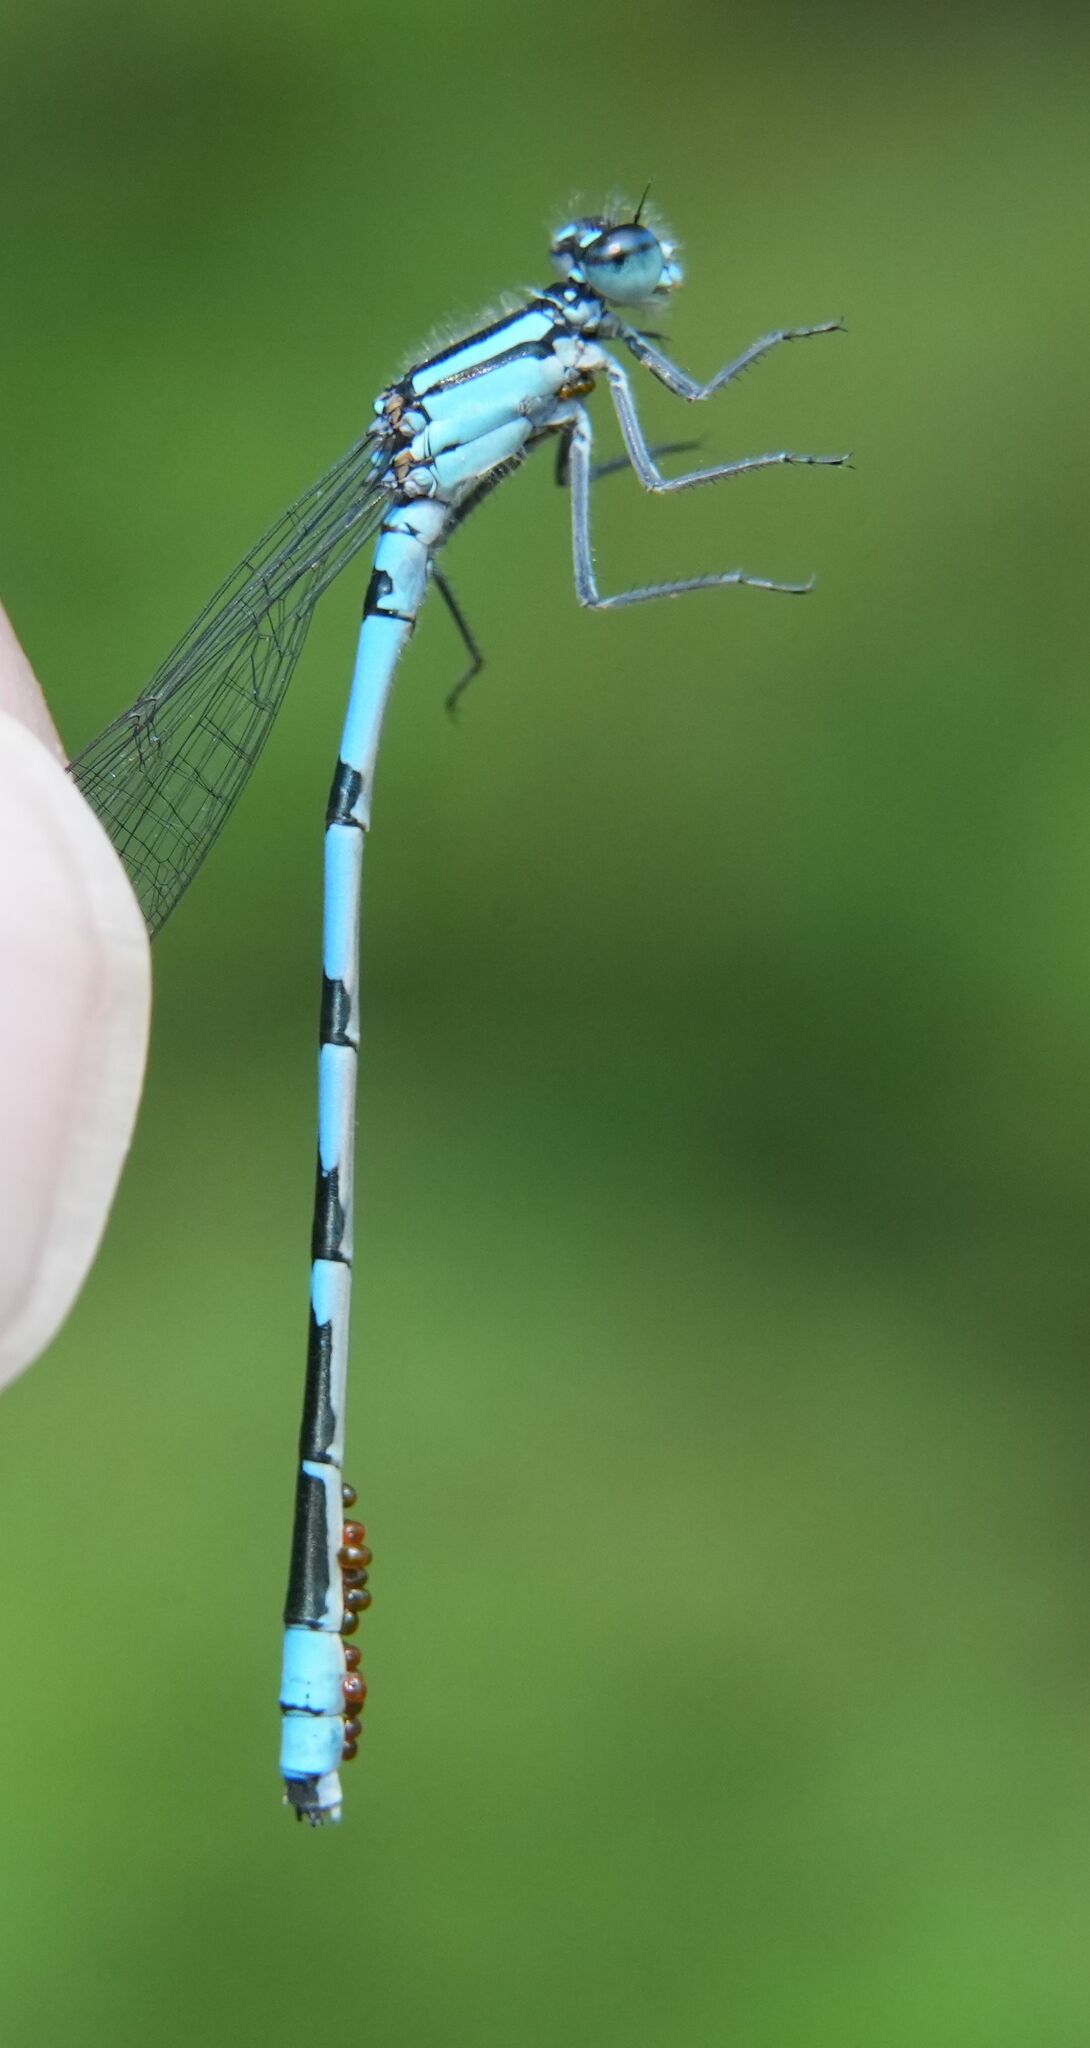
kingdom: Animalia
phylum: Arthropoda
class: Insecta
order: Odonata
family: Coenagrionidae
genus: Enallagma
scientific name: Enallagma ebrium
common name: Marsh bluet
